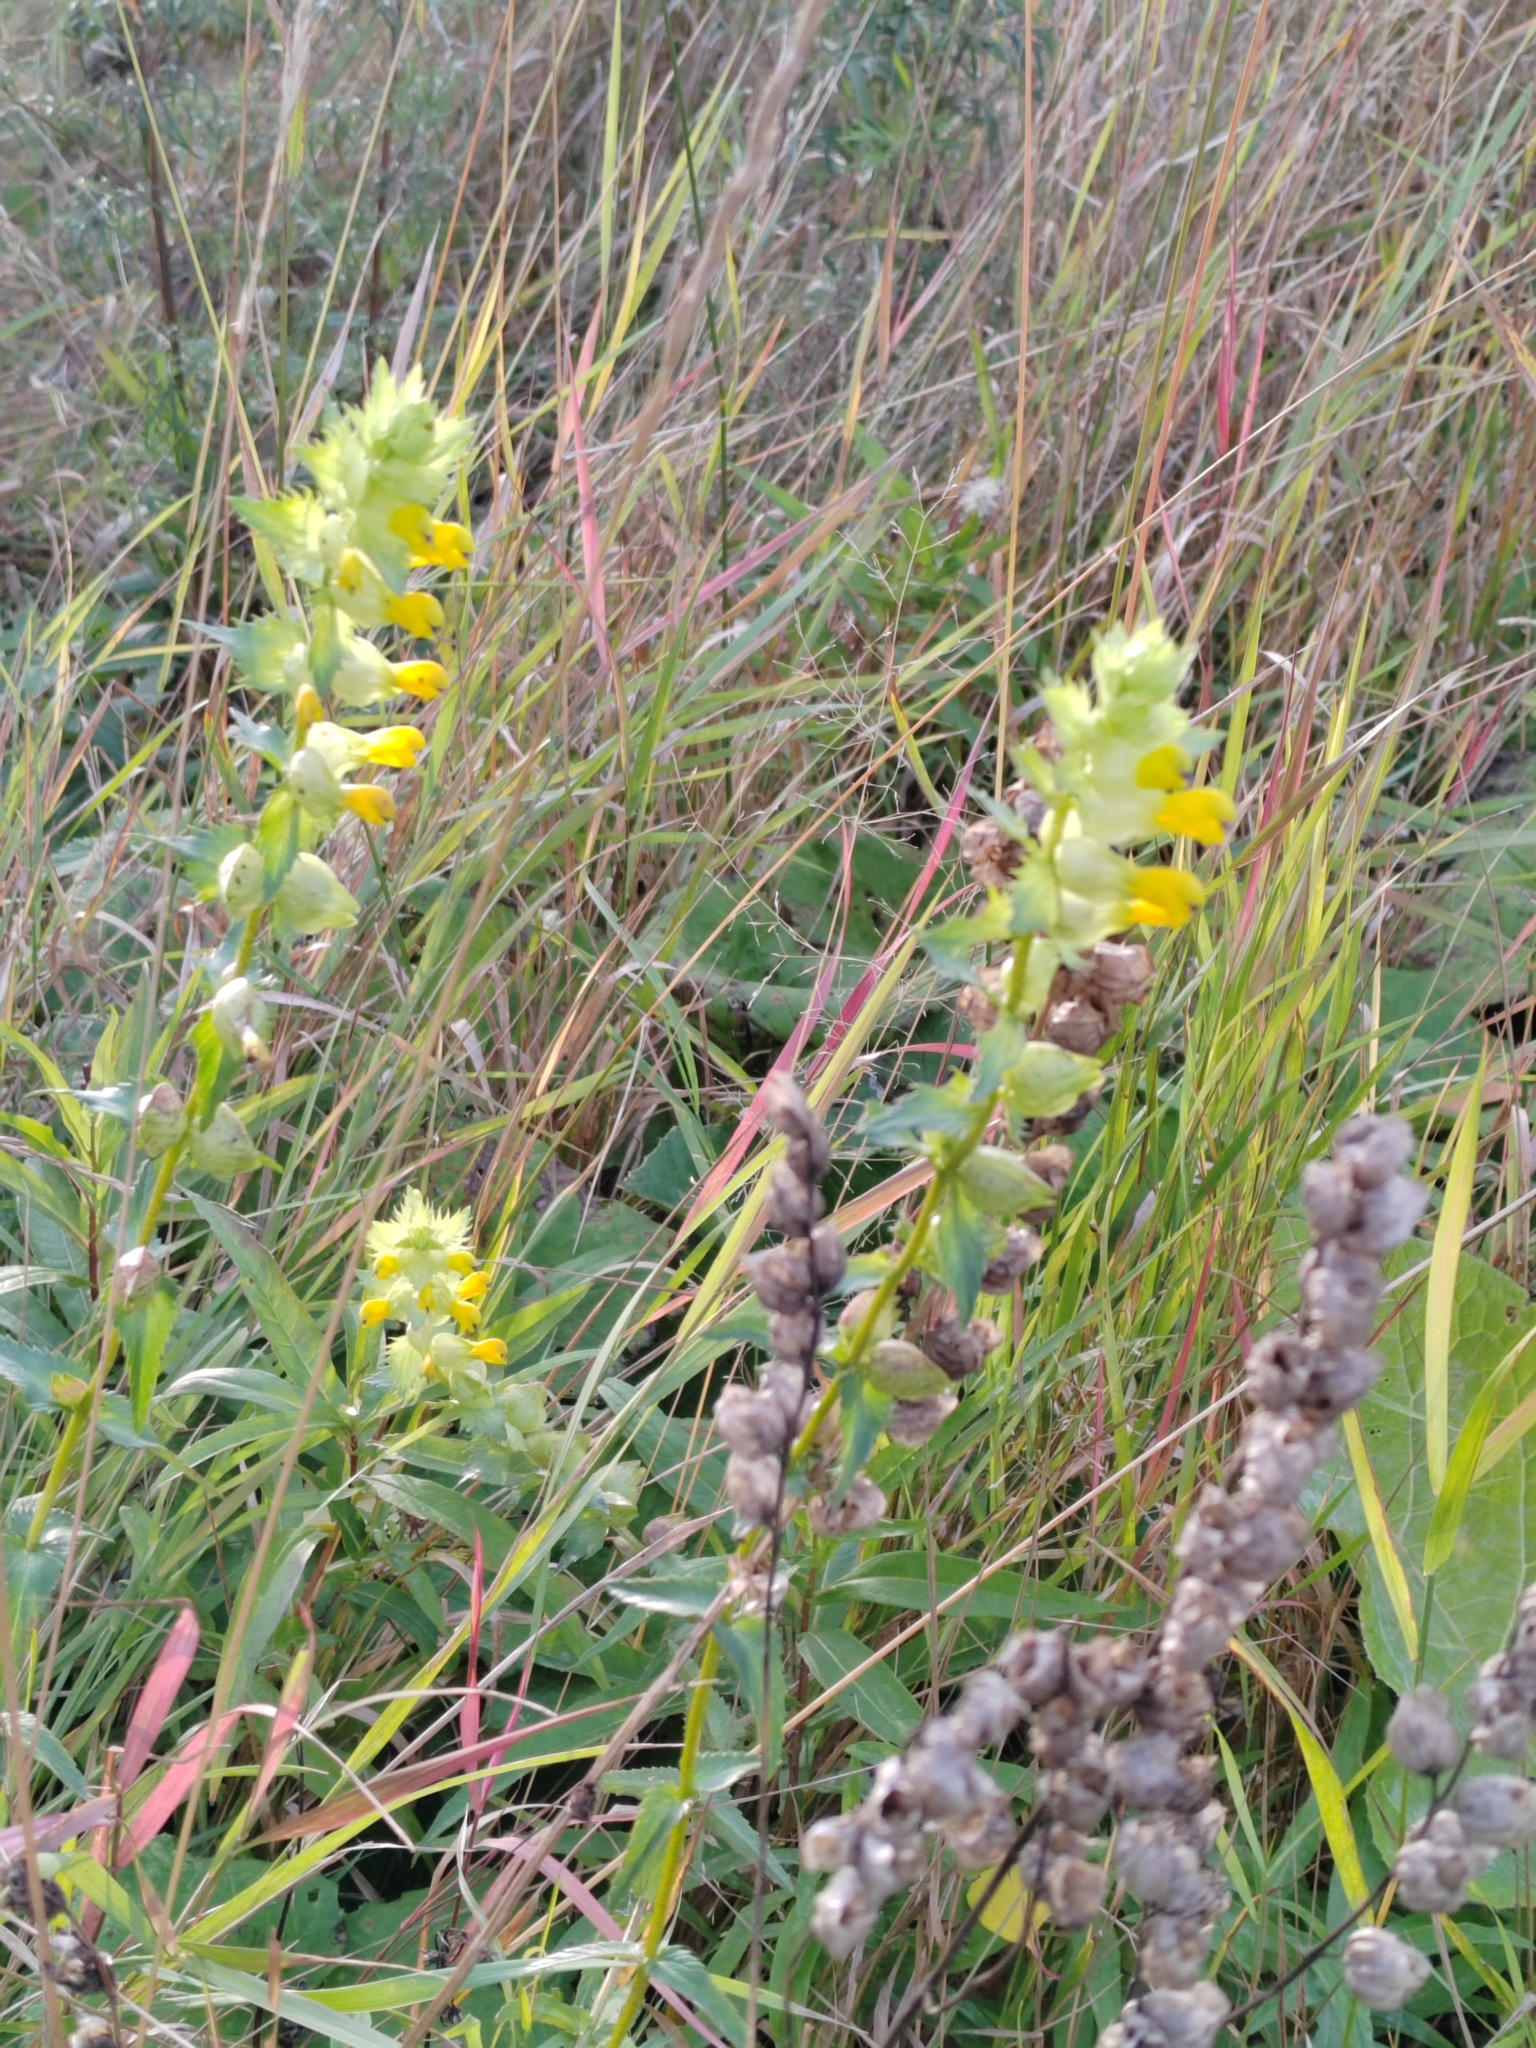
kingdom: Plantae
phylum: Tracheophyta
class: Magnoliopsida
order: Lamiales
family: Orobanchaceae
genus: Rhinanthus
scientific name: Rhinanthus serotinus
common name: Late-flowering yellow rattle
